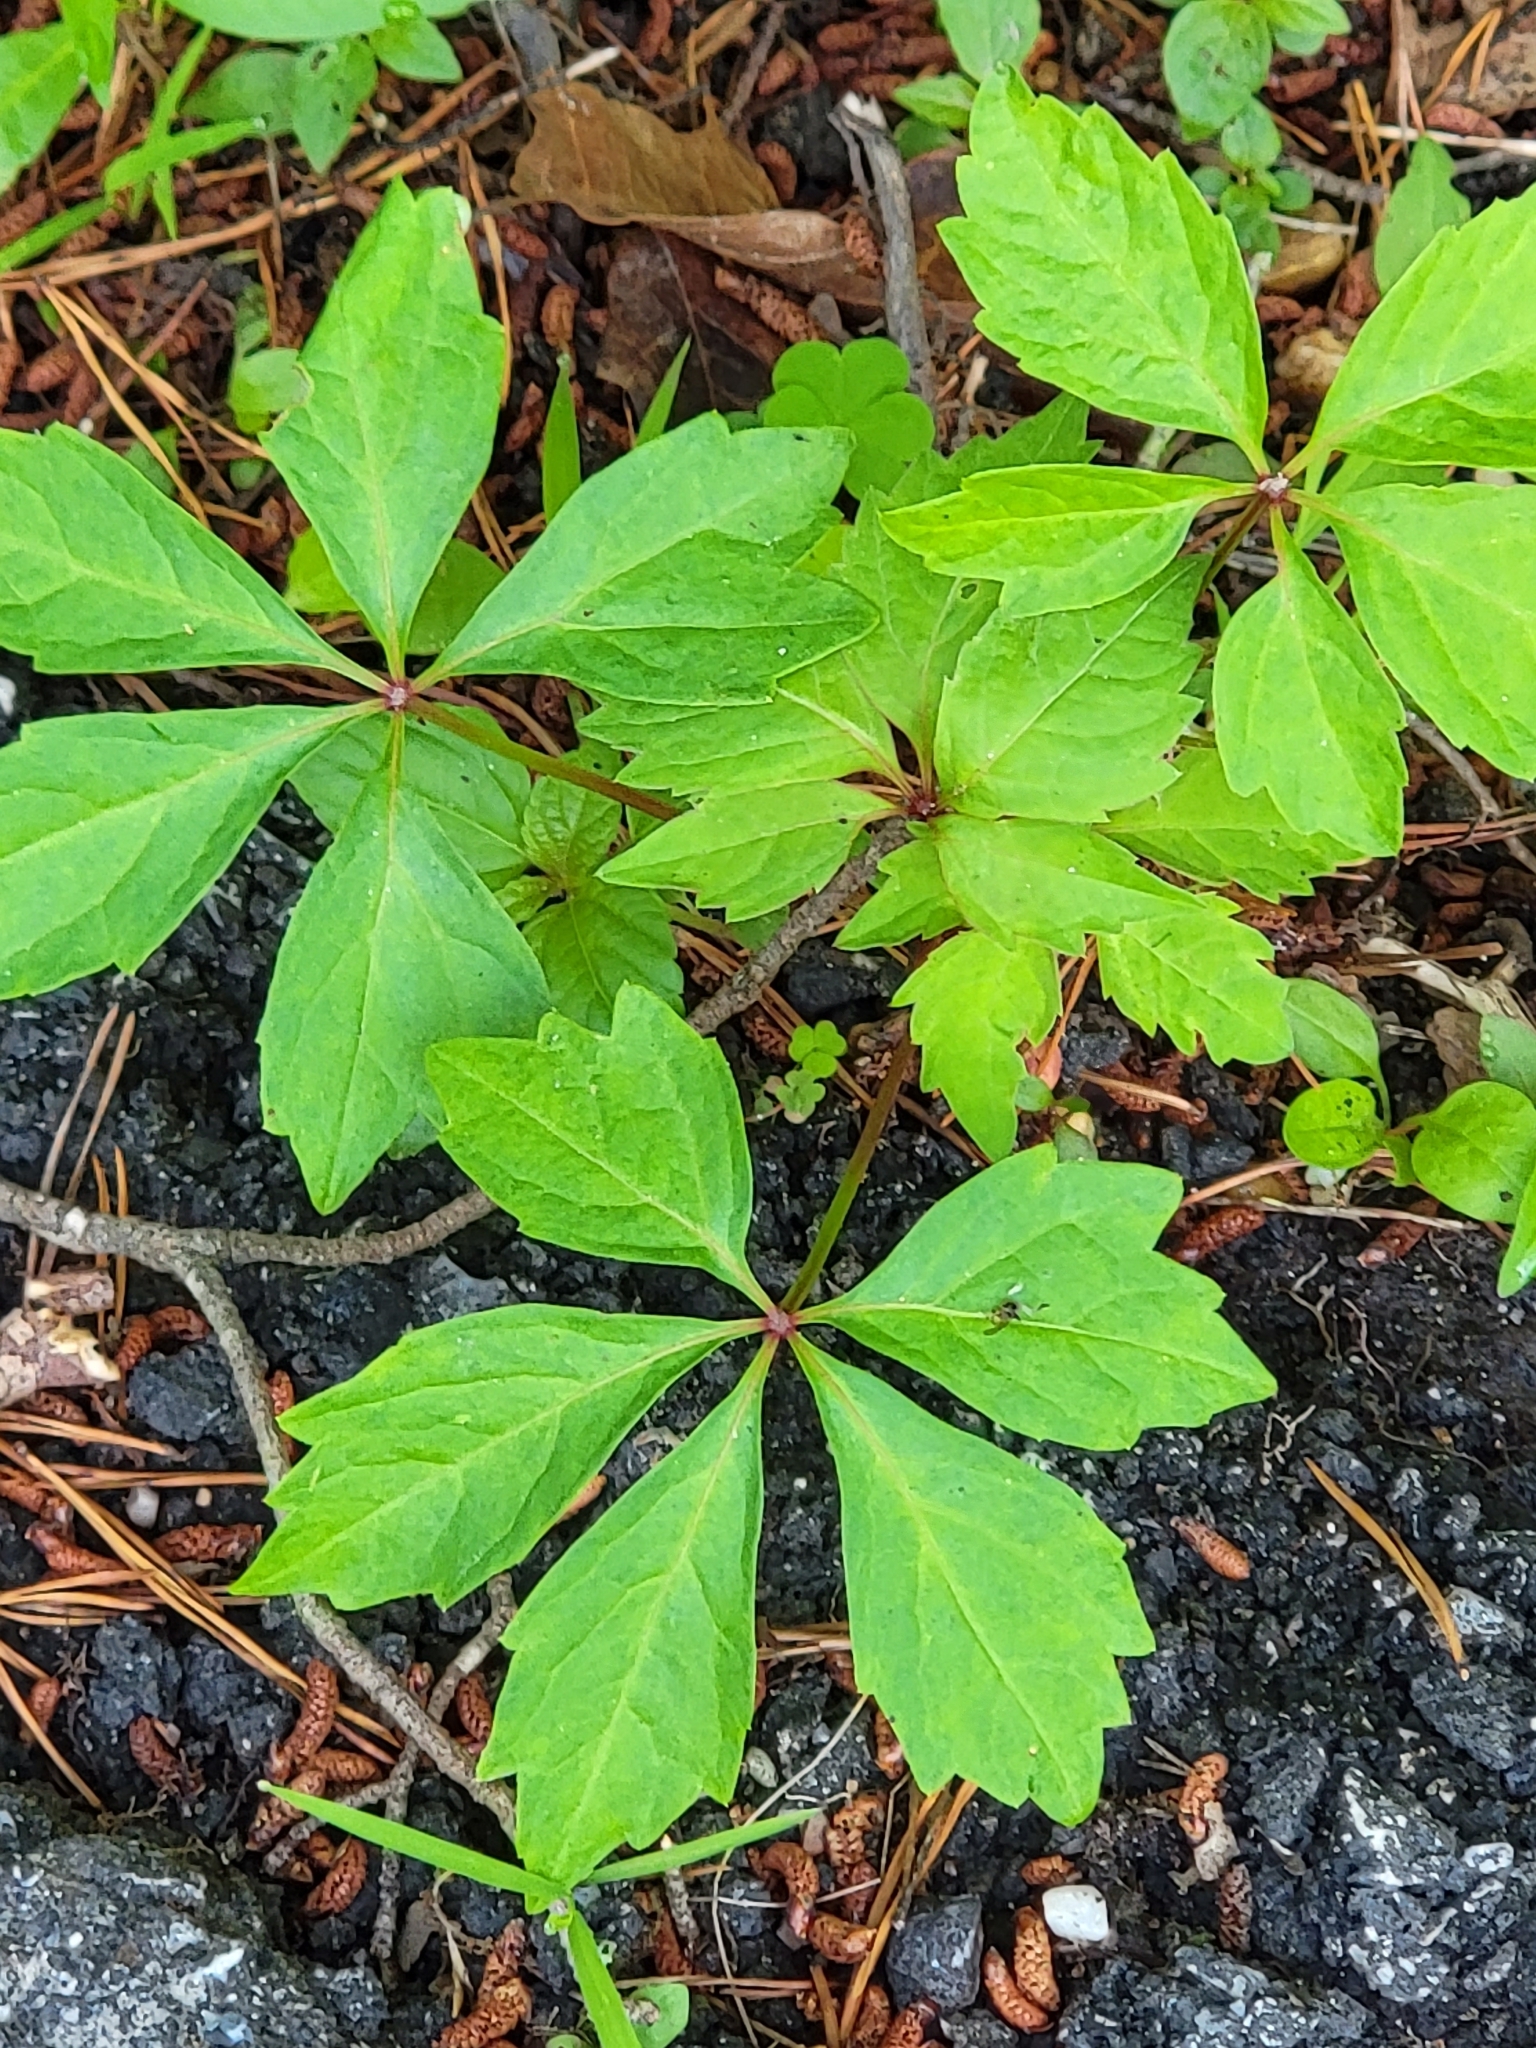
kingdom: Plantae
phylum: Tracheophyta
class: Magnoliopsida
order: Vitales
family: Vitaceae
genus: Parthenocissus
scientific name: Parthenocissus quinquefolia
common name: Virginia-creeper
